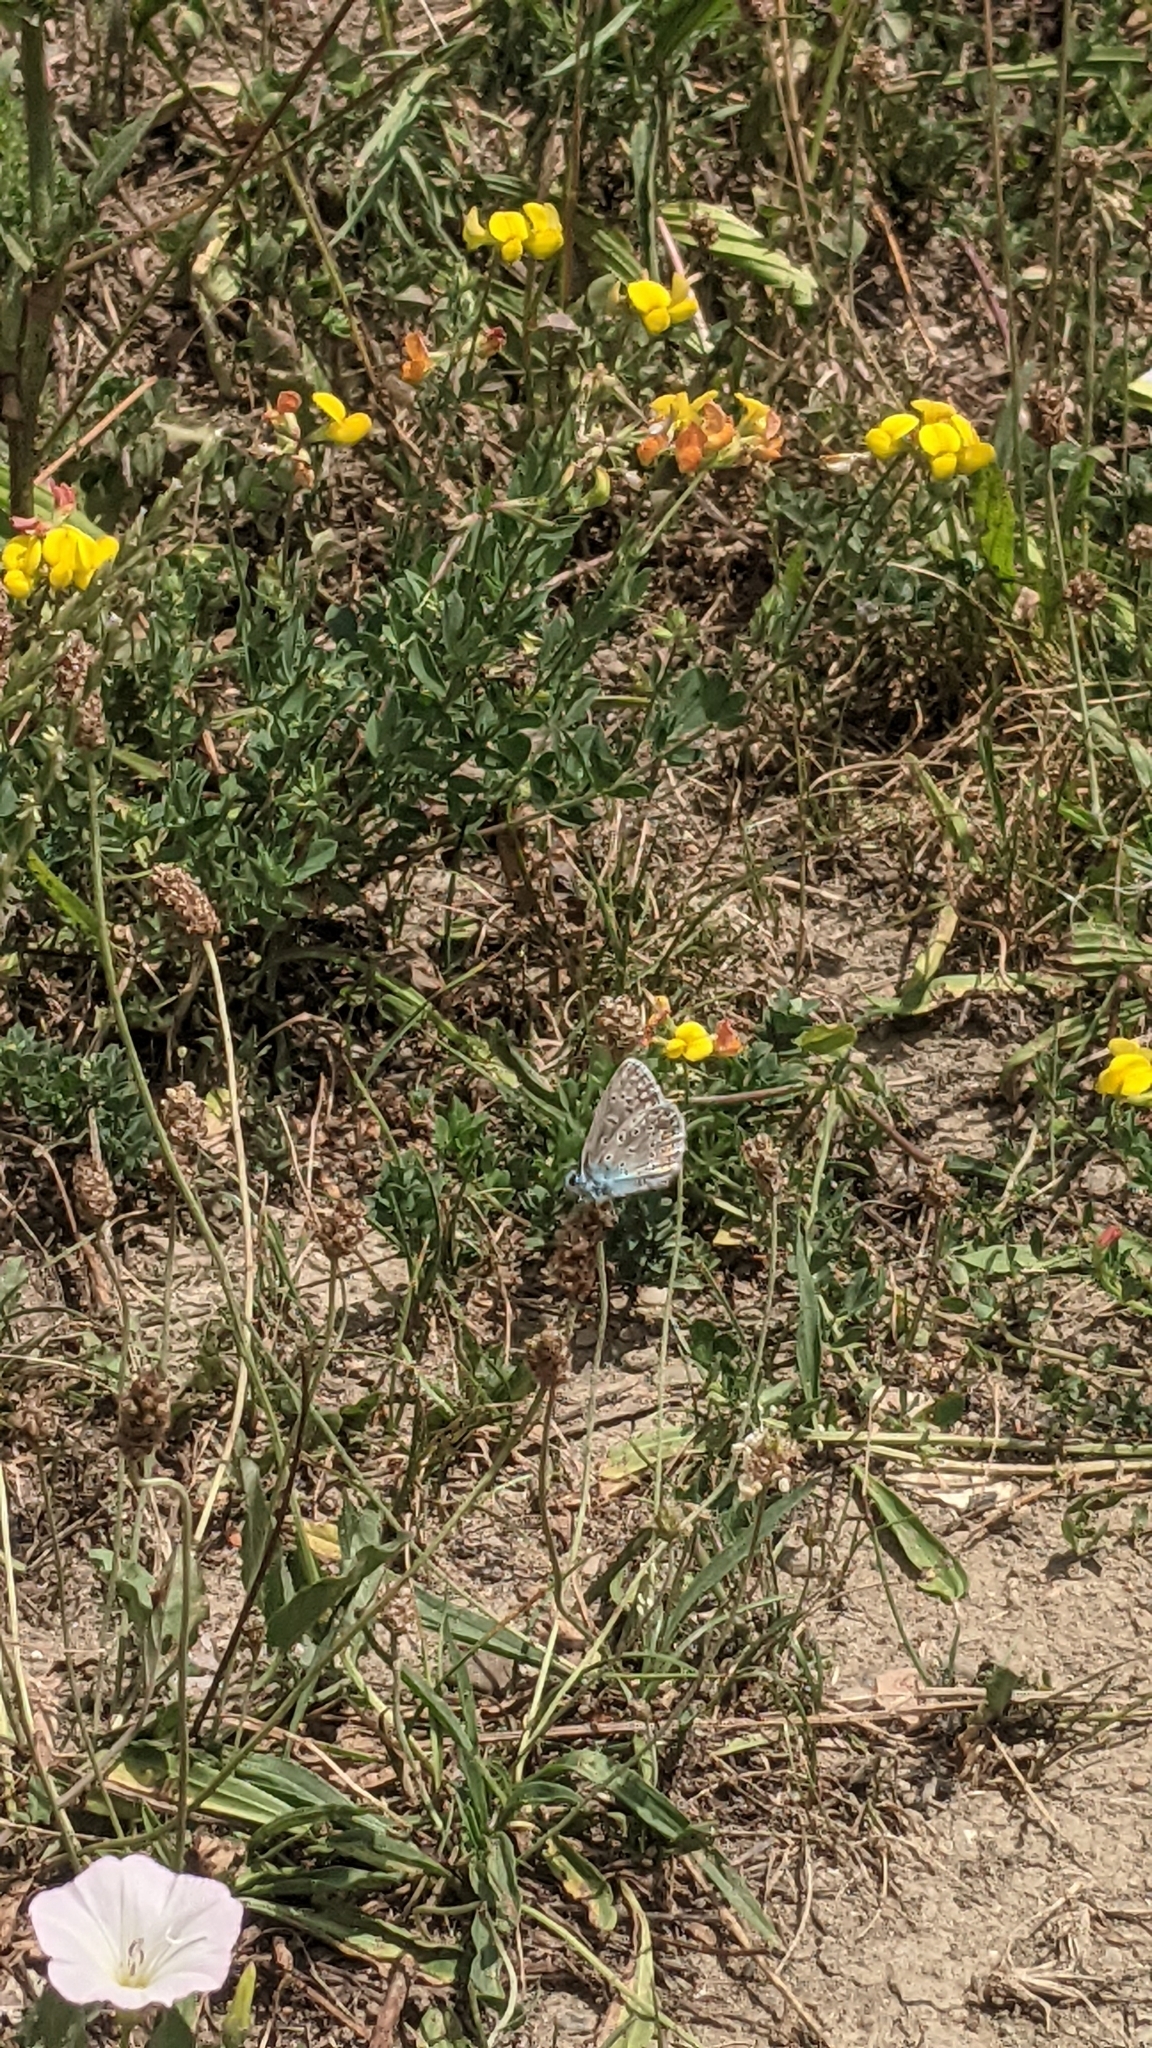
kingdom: Animalia
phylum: Arthropoda
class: Insecta
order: Lepidoptera
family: Lycaenidae
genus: Polyommatus
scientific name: Polyommatus icarus
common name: Common blue
